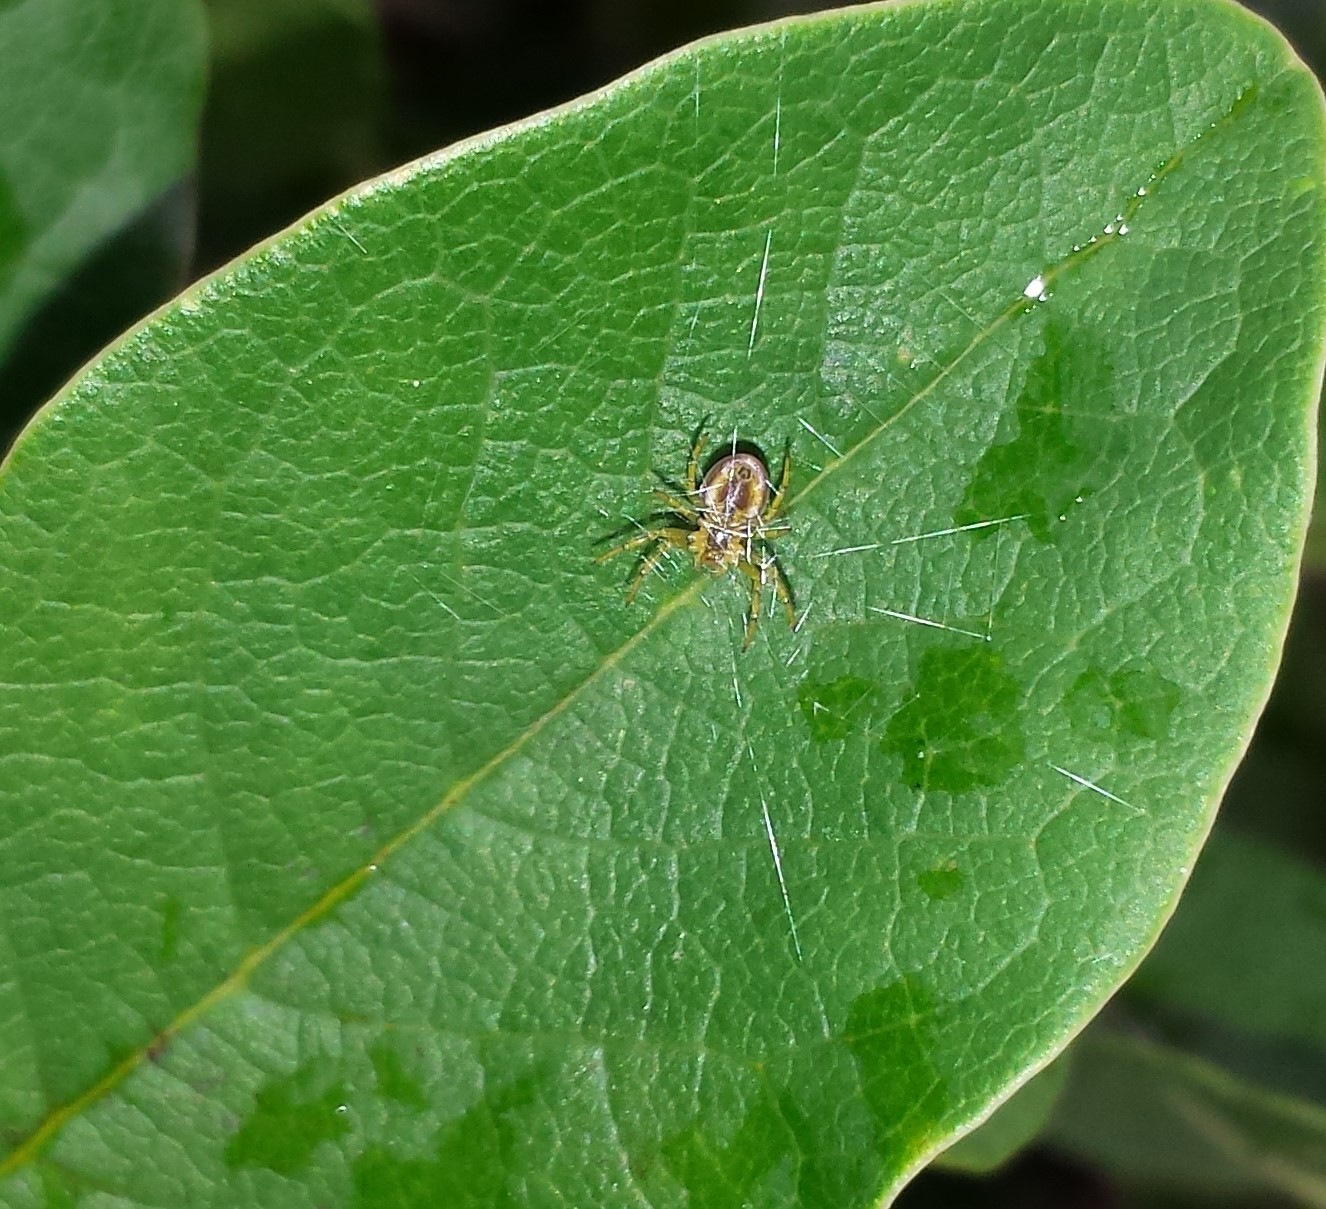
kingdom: Animalia
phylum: Arthropoda
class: Arachnida
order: Araneae
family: Araneidae
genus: Araniella
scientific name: Araniella displicata
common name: Sixspotted orb weaver
